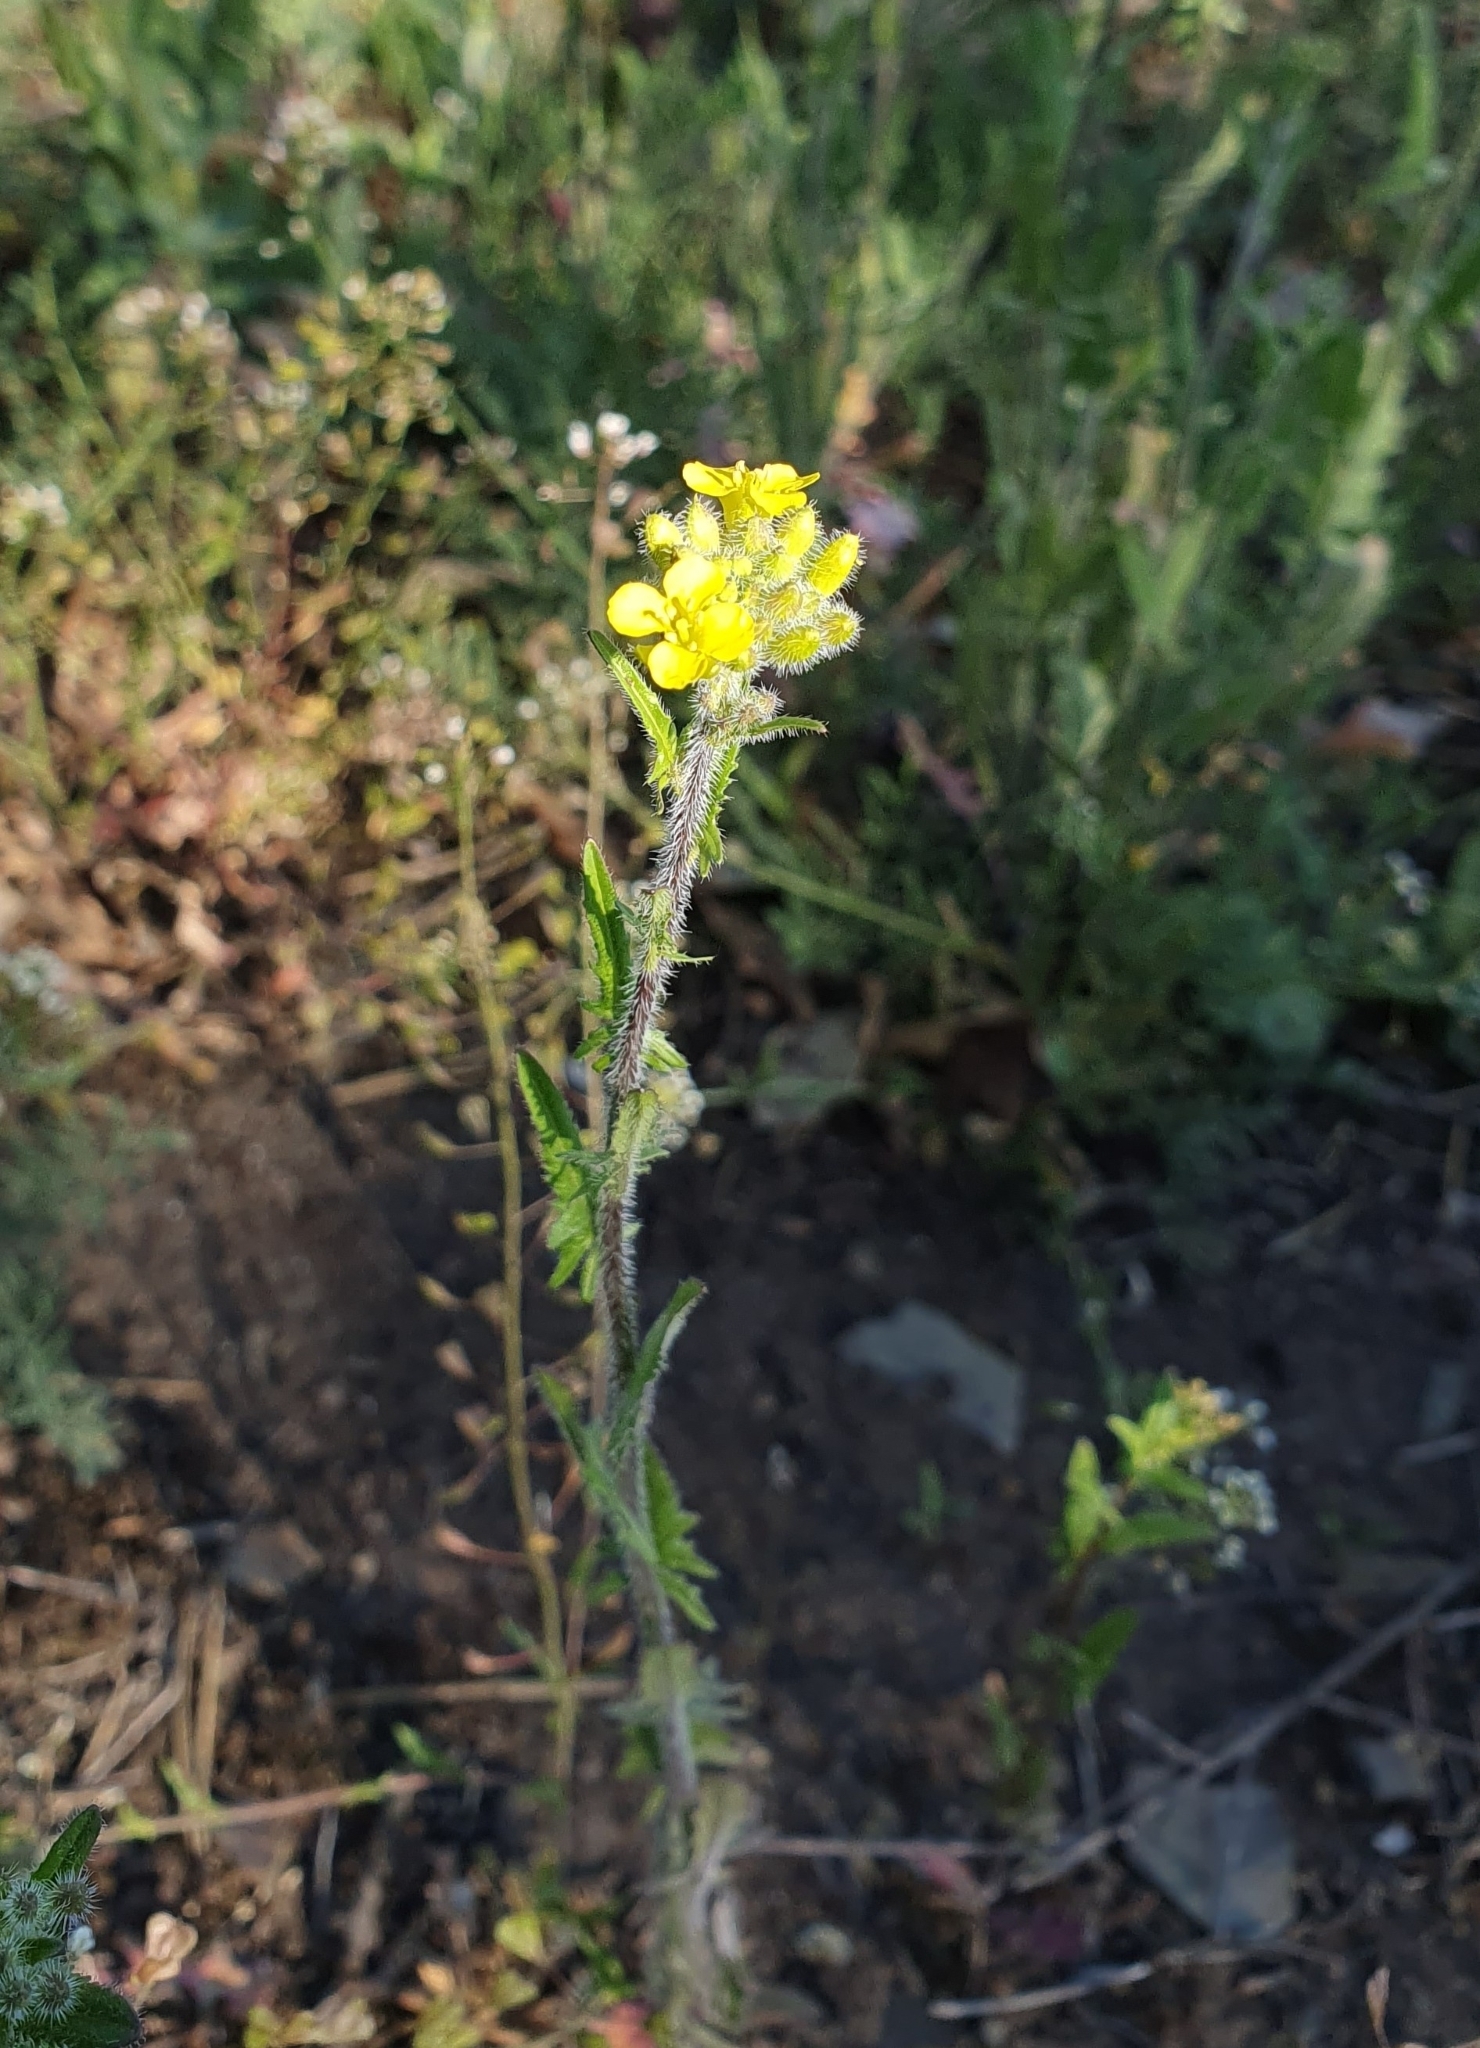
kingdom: Plantae
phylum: Tracheophyta
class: Magnoliopsida
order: Brassicales
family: Brassicaceae
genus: Sisymbrium
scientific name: Sisymbrium loeselii
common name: False london-rocket
